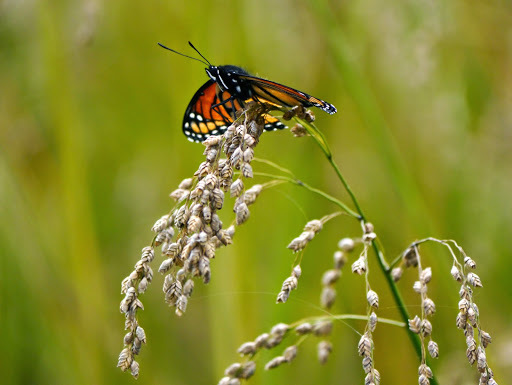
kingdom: Animalia
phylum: Arthropoda
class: Insecta
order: Lepidoptera
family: Nymphalidae
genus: Limenitis
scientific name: Limenitis archippus
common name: Viceroy
